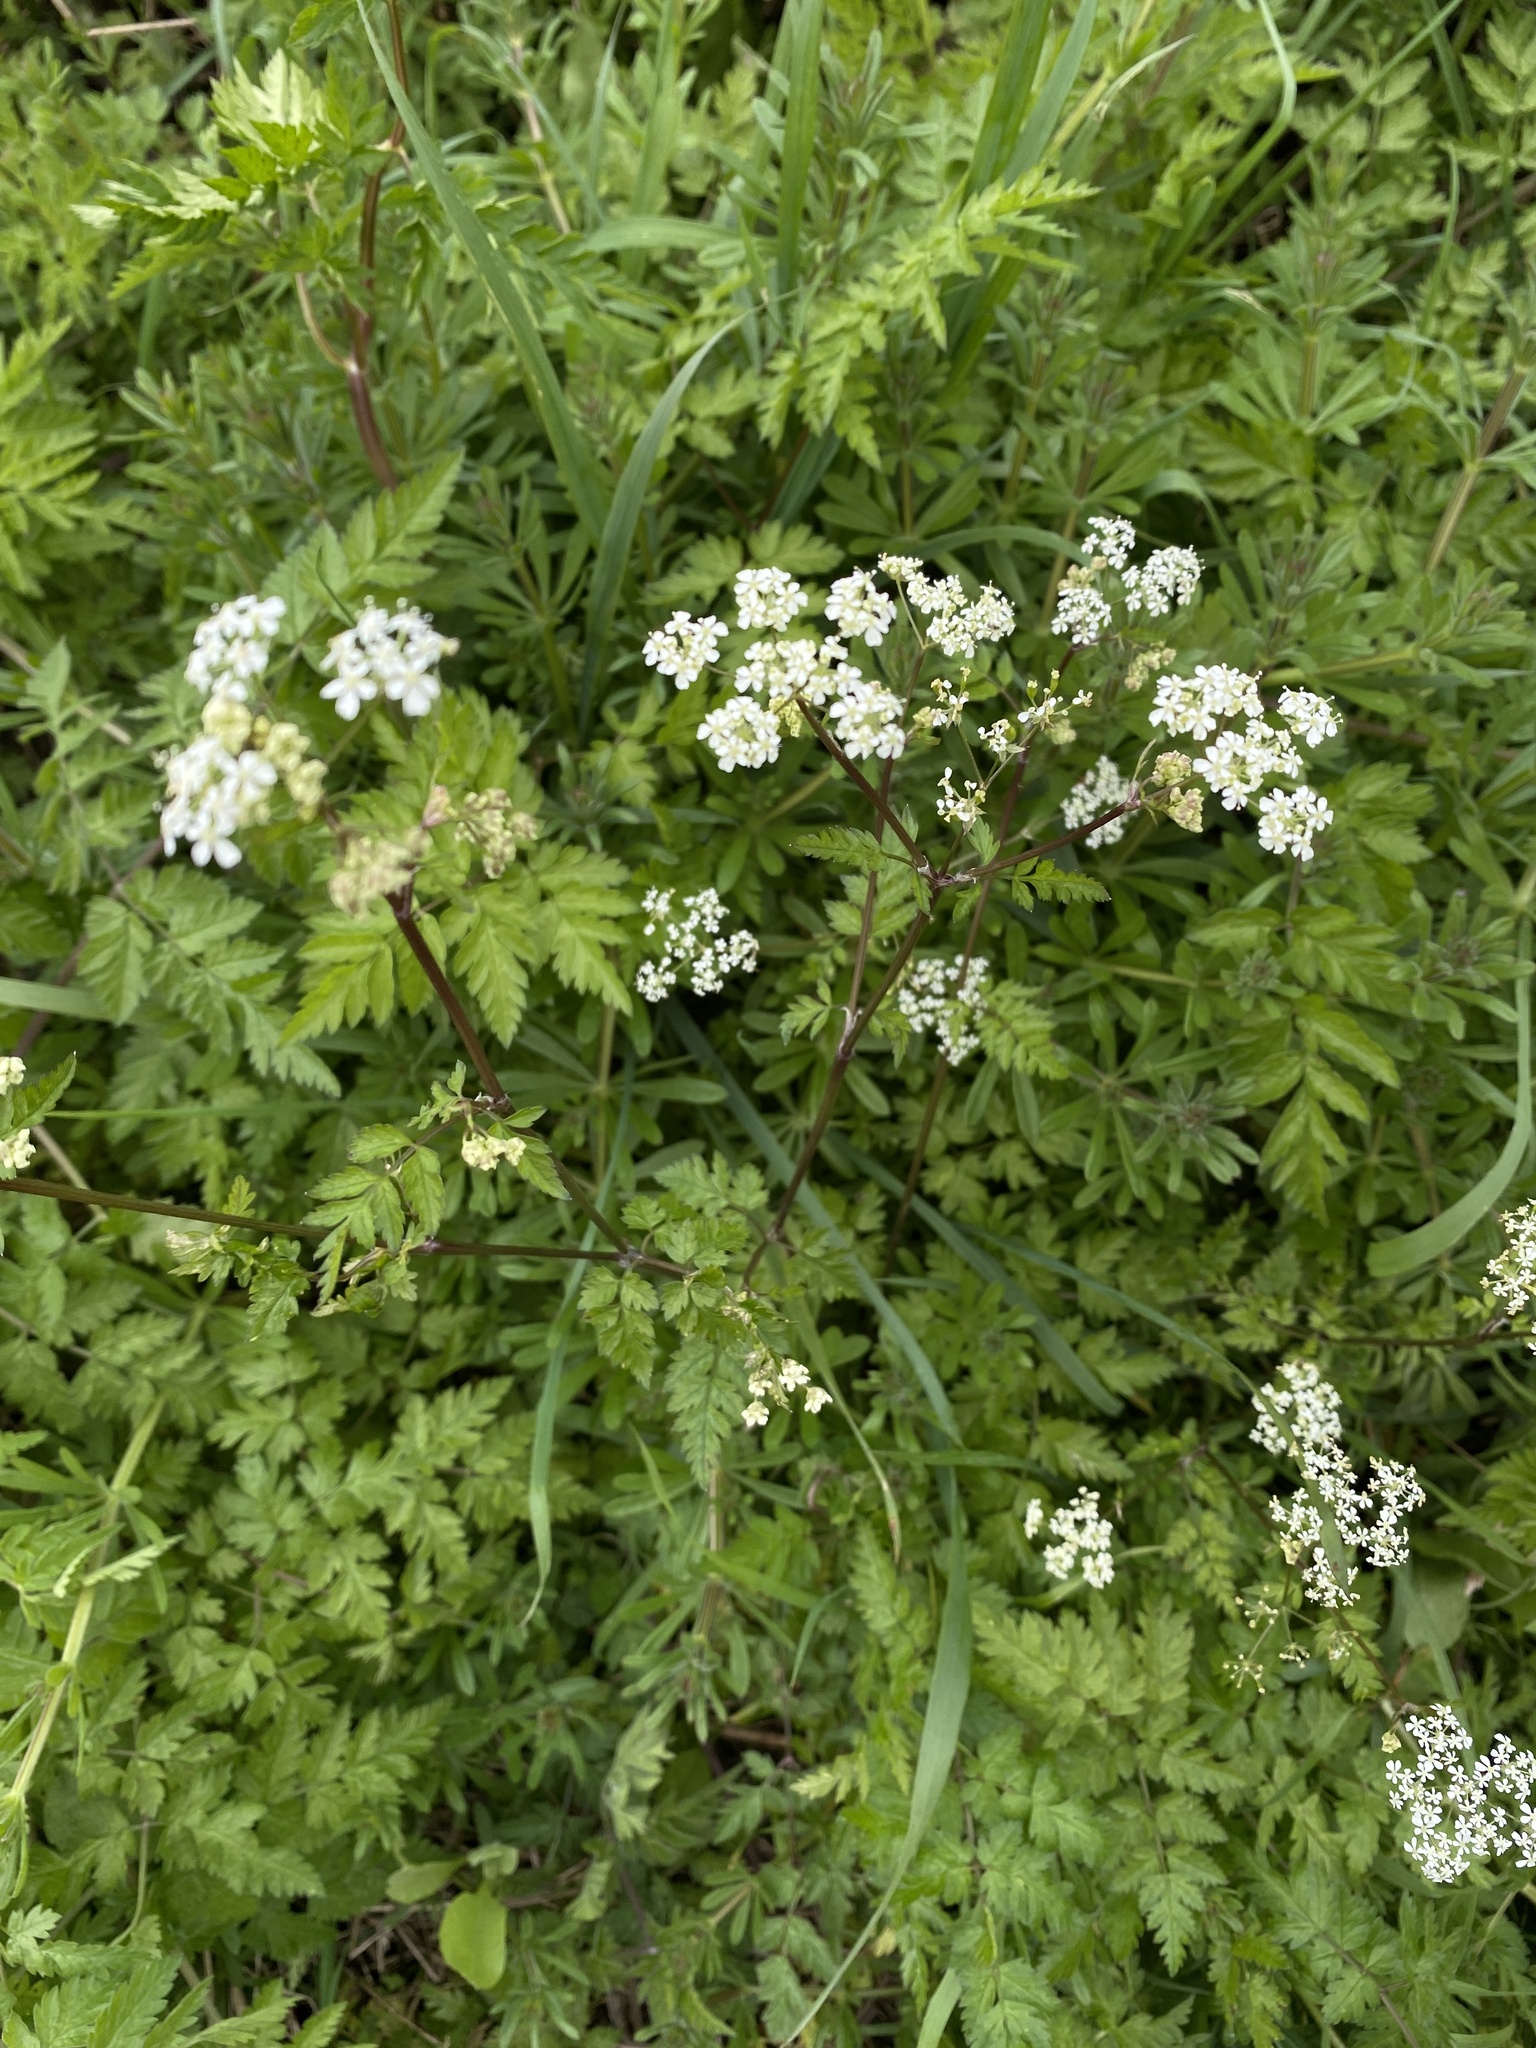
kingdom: Plantae
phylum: Tracheophyta
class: Magnoliopsida
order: Apiales
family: Apiaceae
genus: Anthriscus
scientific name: Anthriscus sylvestris
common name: Cow parsley
